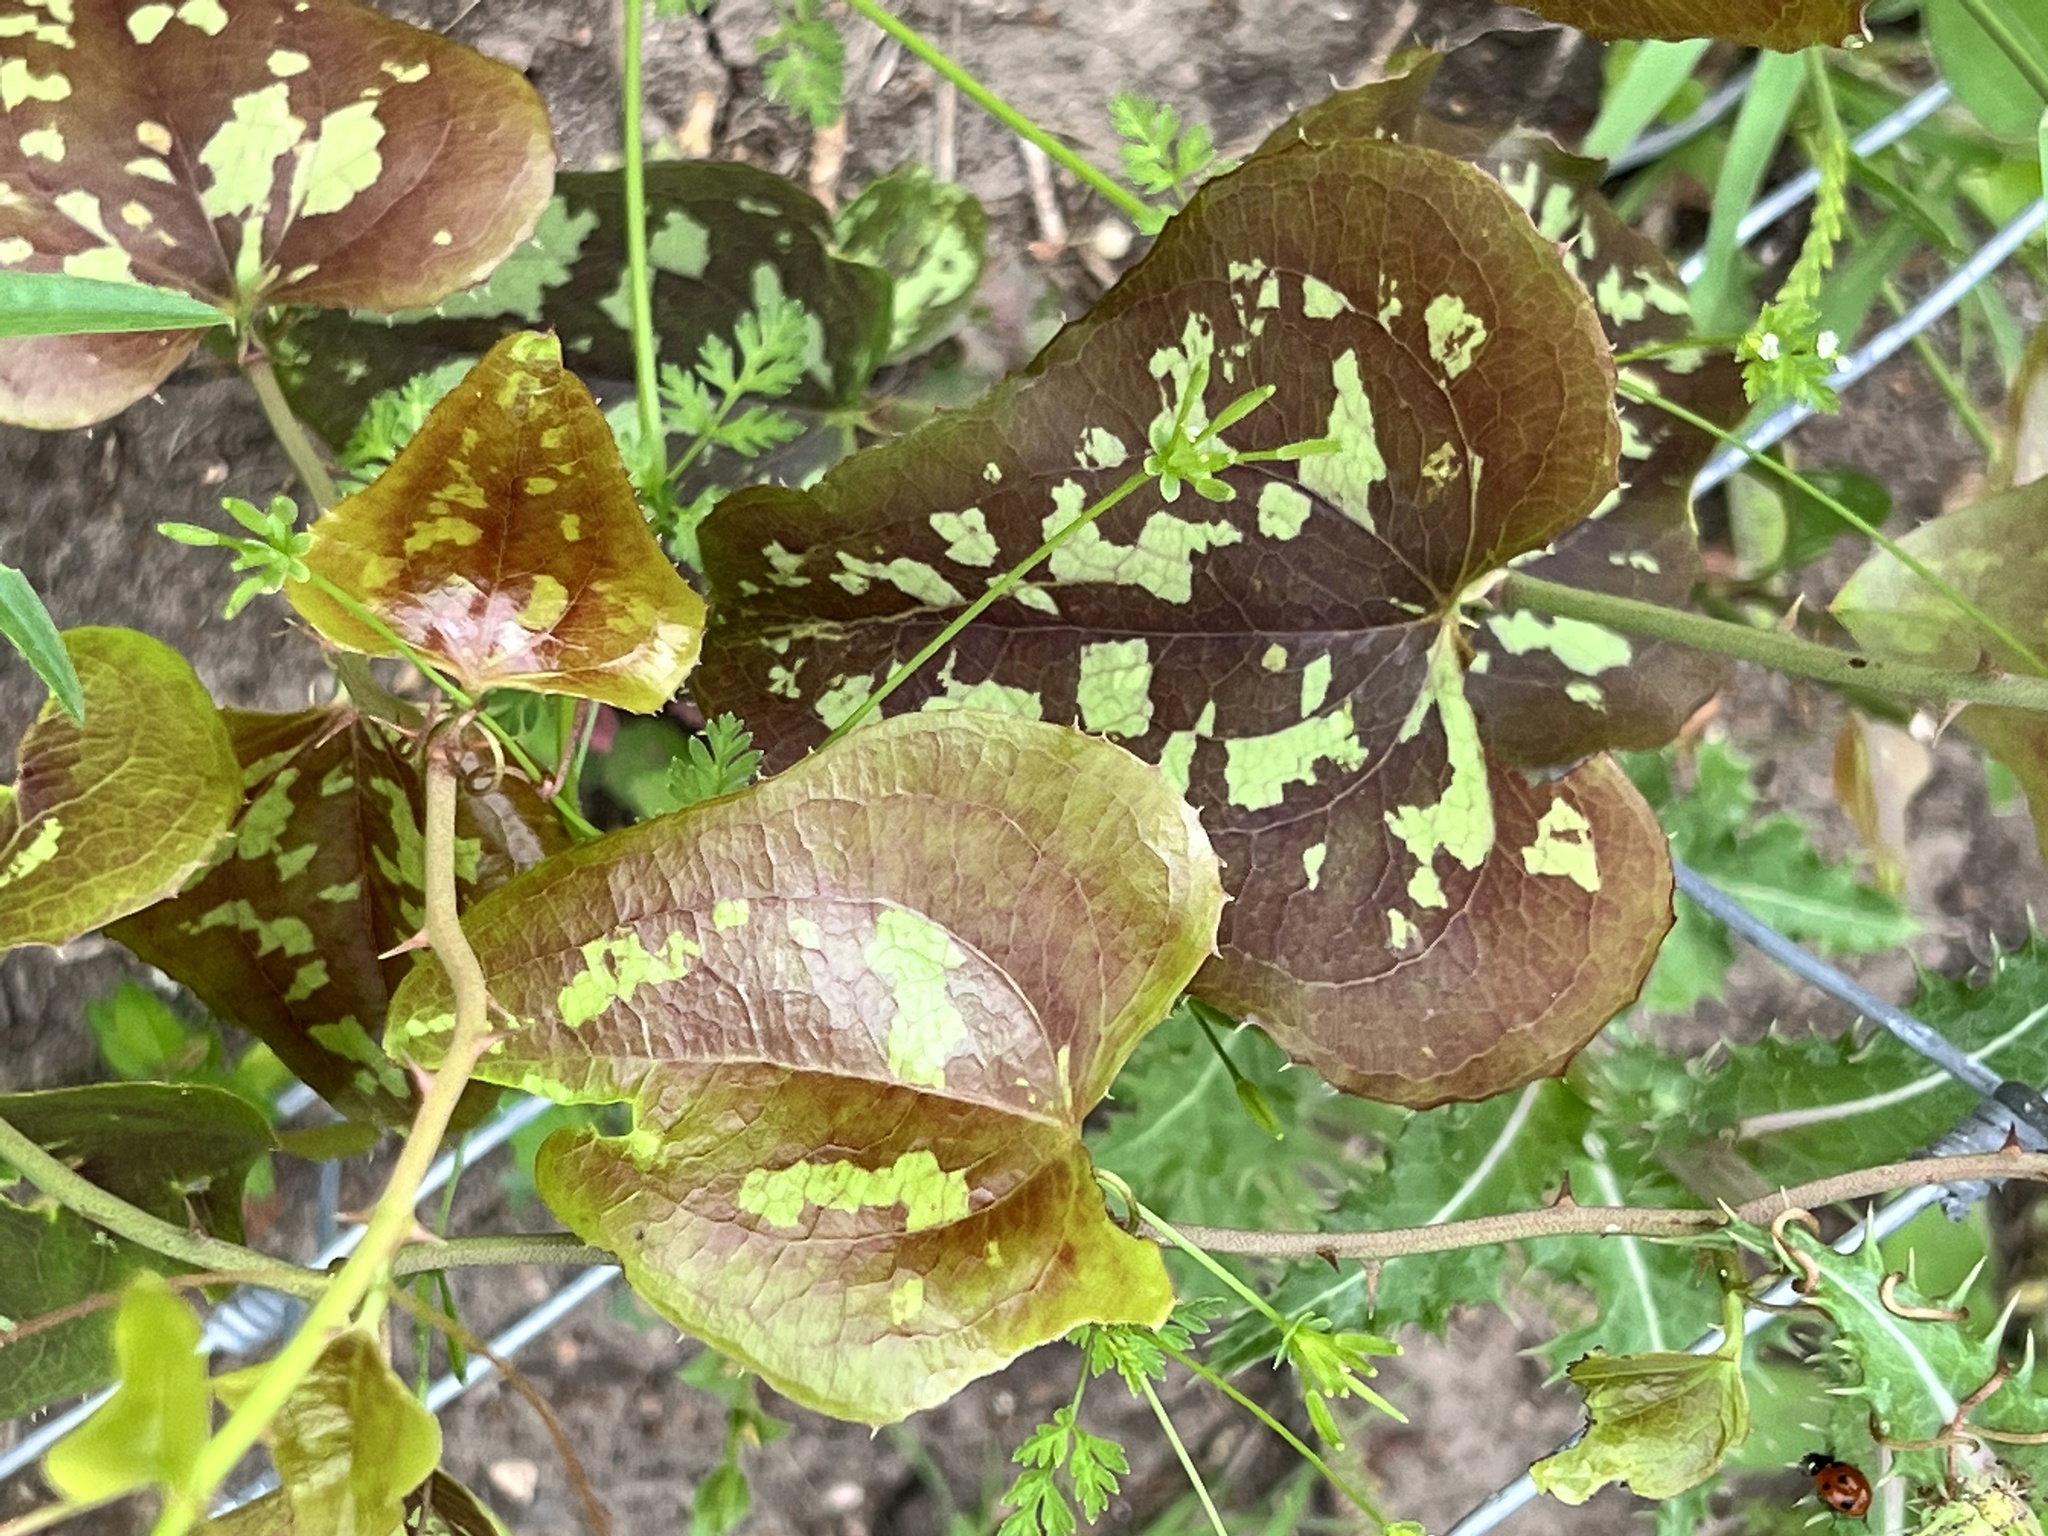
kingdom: Plantae
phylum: Tracheophyta
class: Liliopsida
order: Liliales
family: Smilacaceae
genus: Smilax
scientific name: Smilax bona-nox
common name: Catbrier
